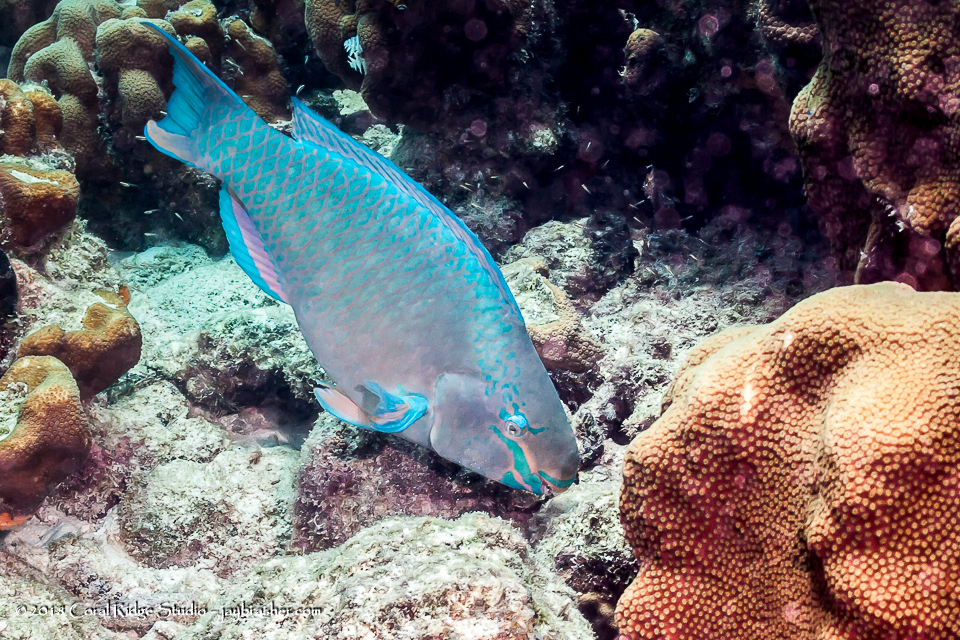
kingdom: Animalia
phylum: Chordata
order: Perciformes
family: Scaridae
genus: Scarus
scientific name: Scarus vetula
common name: Queen parrotfish
